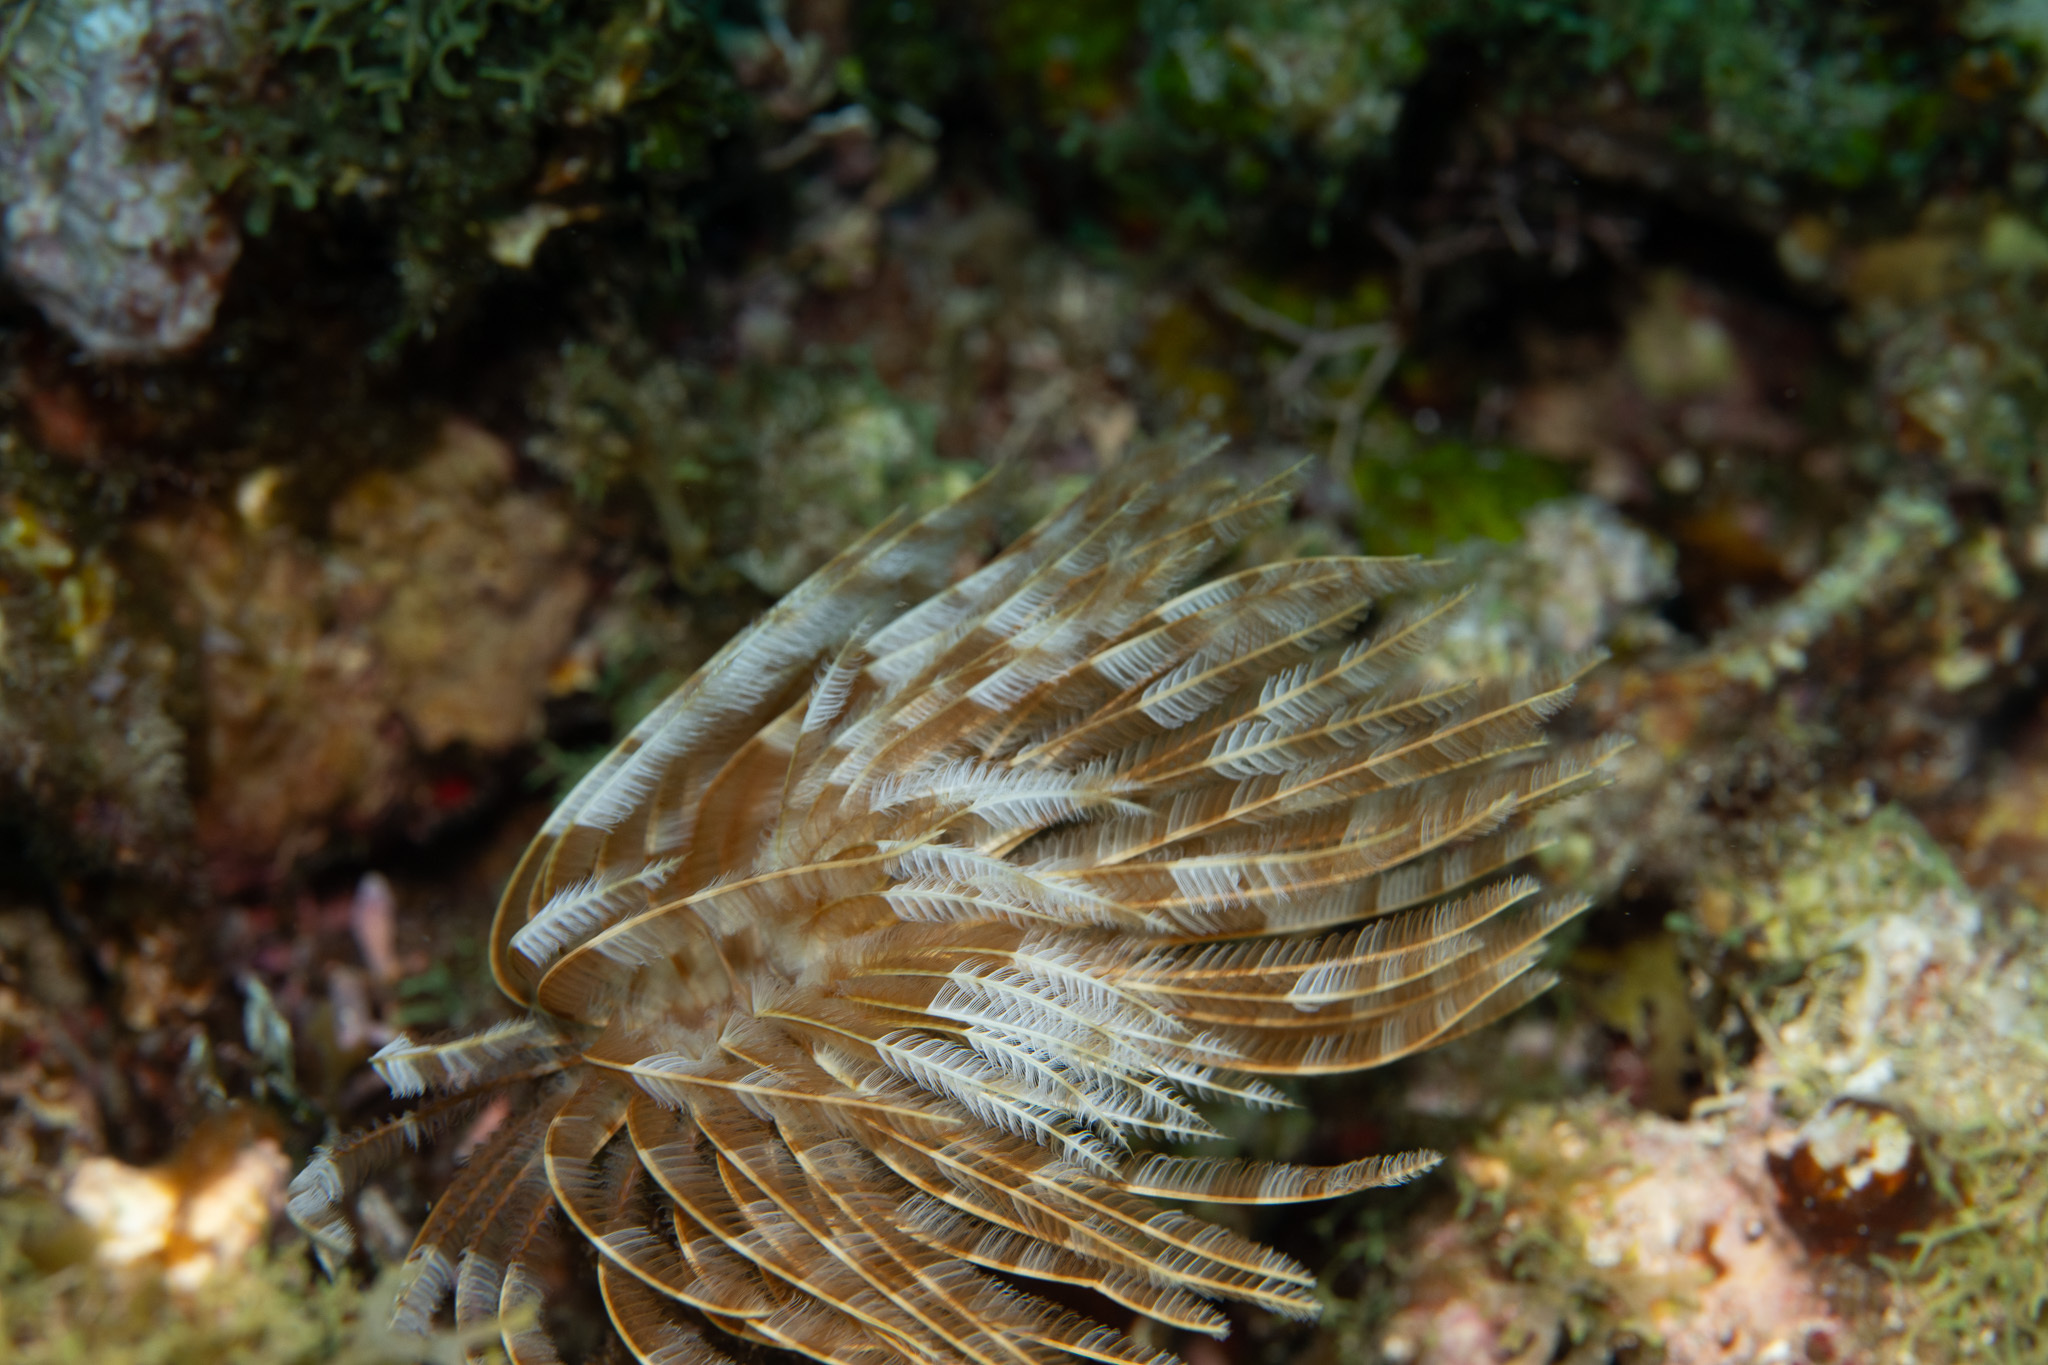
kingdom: Animalia
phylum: Annelida
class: Polychaeta
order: Sabellida
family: Sabellidae
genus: Sabellastarte
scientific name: Sabellastarte magnifica
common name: Giant feather-duster worm
